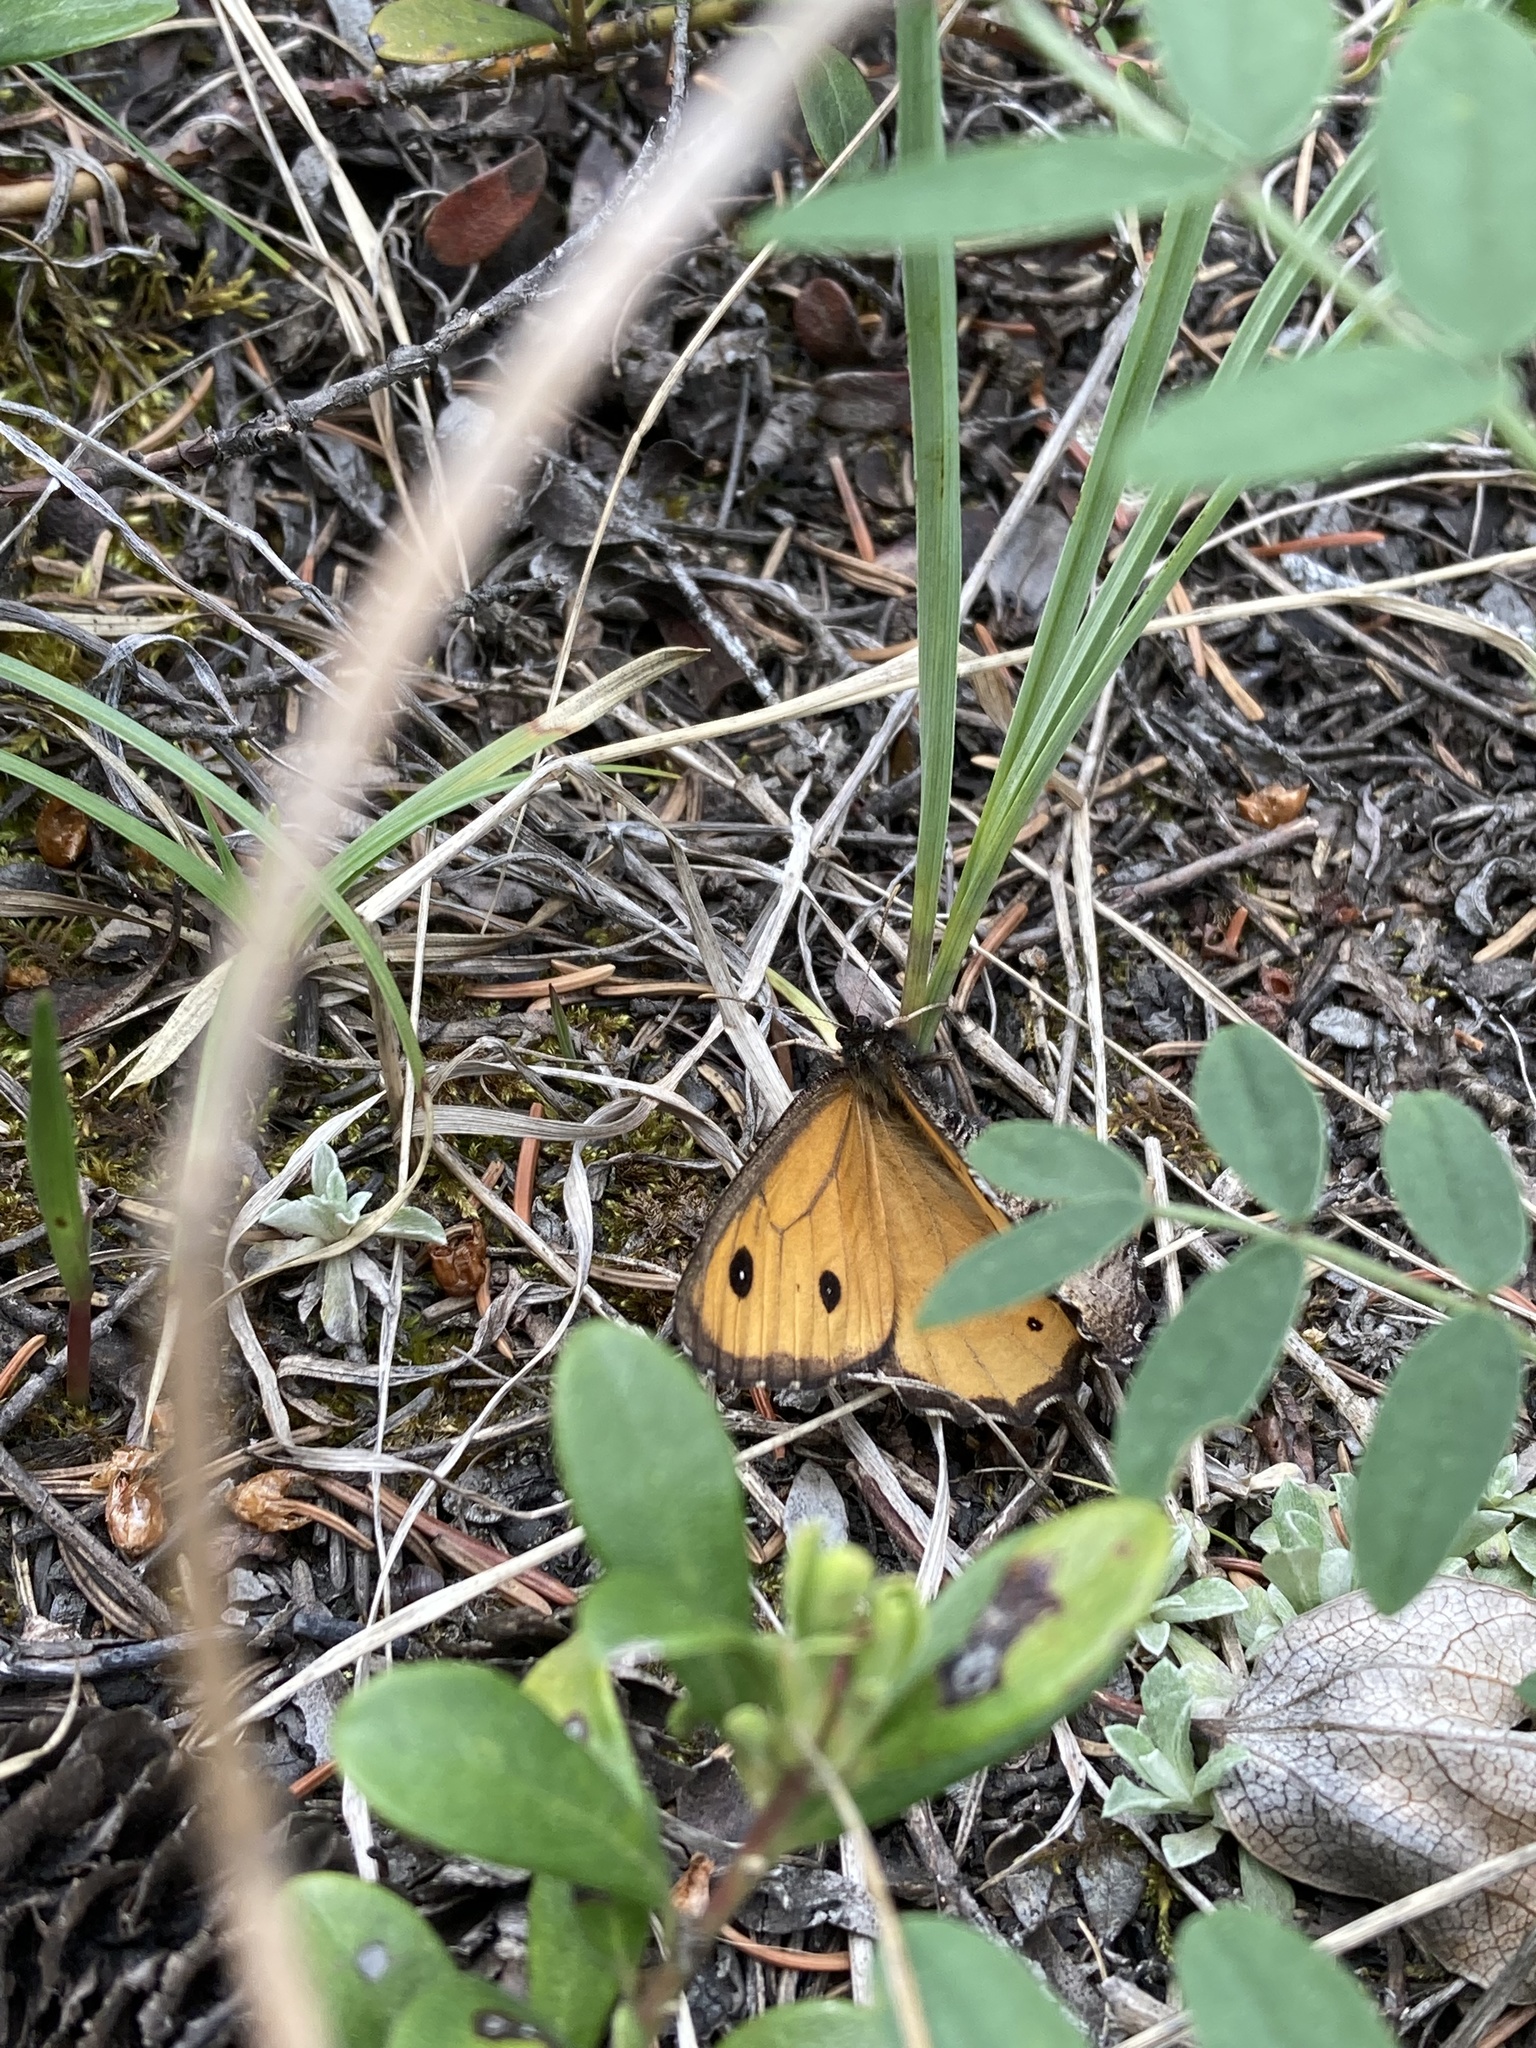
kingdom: Animalia
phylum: Arthropoda
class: Insecta
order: Lepidoptera
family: Nymphalidae
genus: Oeneis
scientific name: Oeneis macounii
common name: Macoun's arctic
